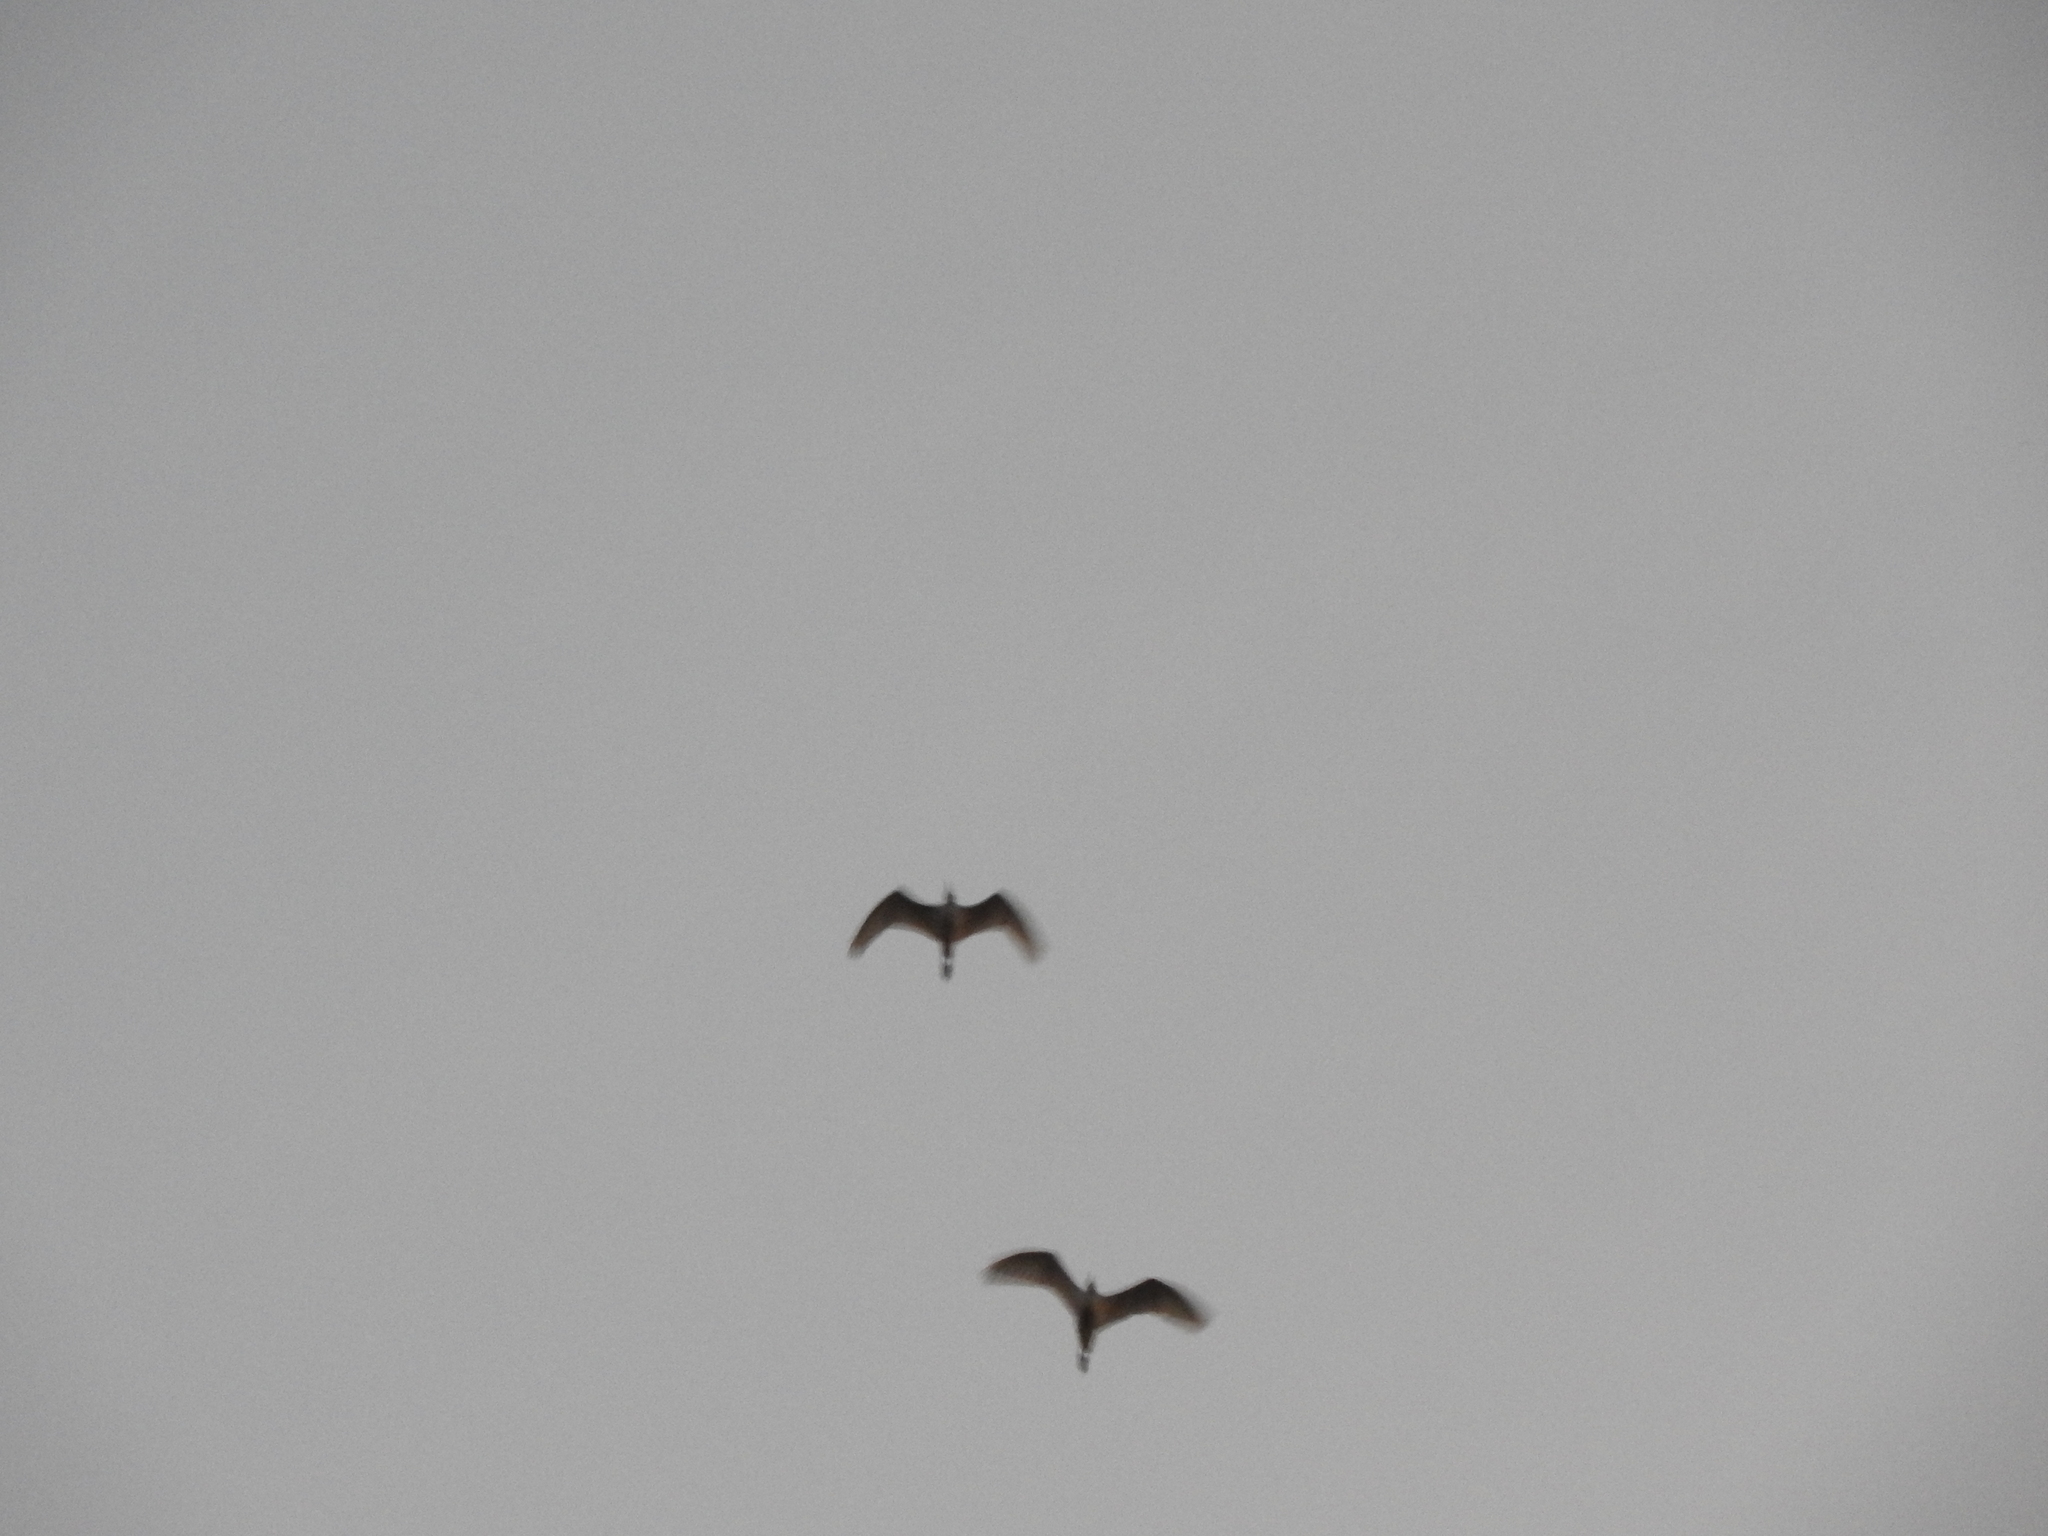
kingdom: Animalia
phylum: Chordata
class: Aves
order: Pelecaniformes
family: Ardeidae
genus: Bubulcus
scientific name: Bubulcus ibis
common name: Cattle egret
